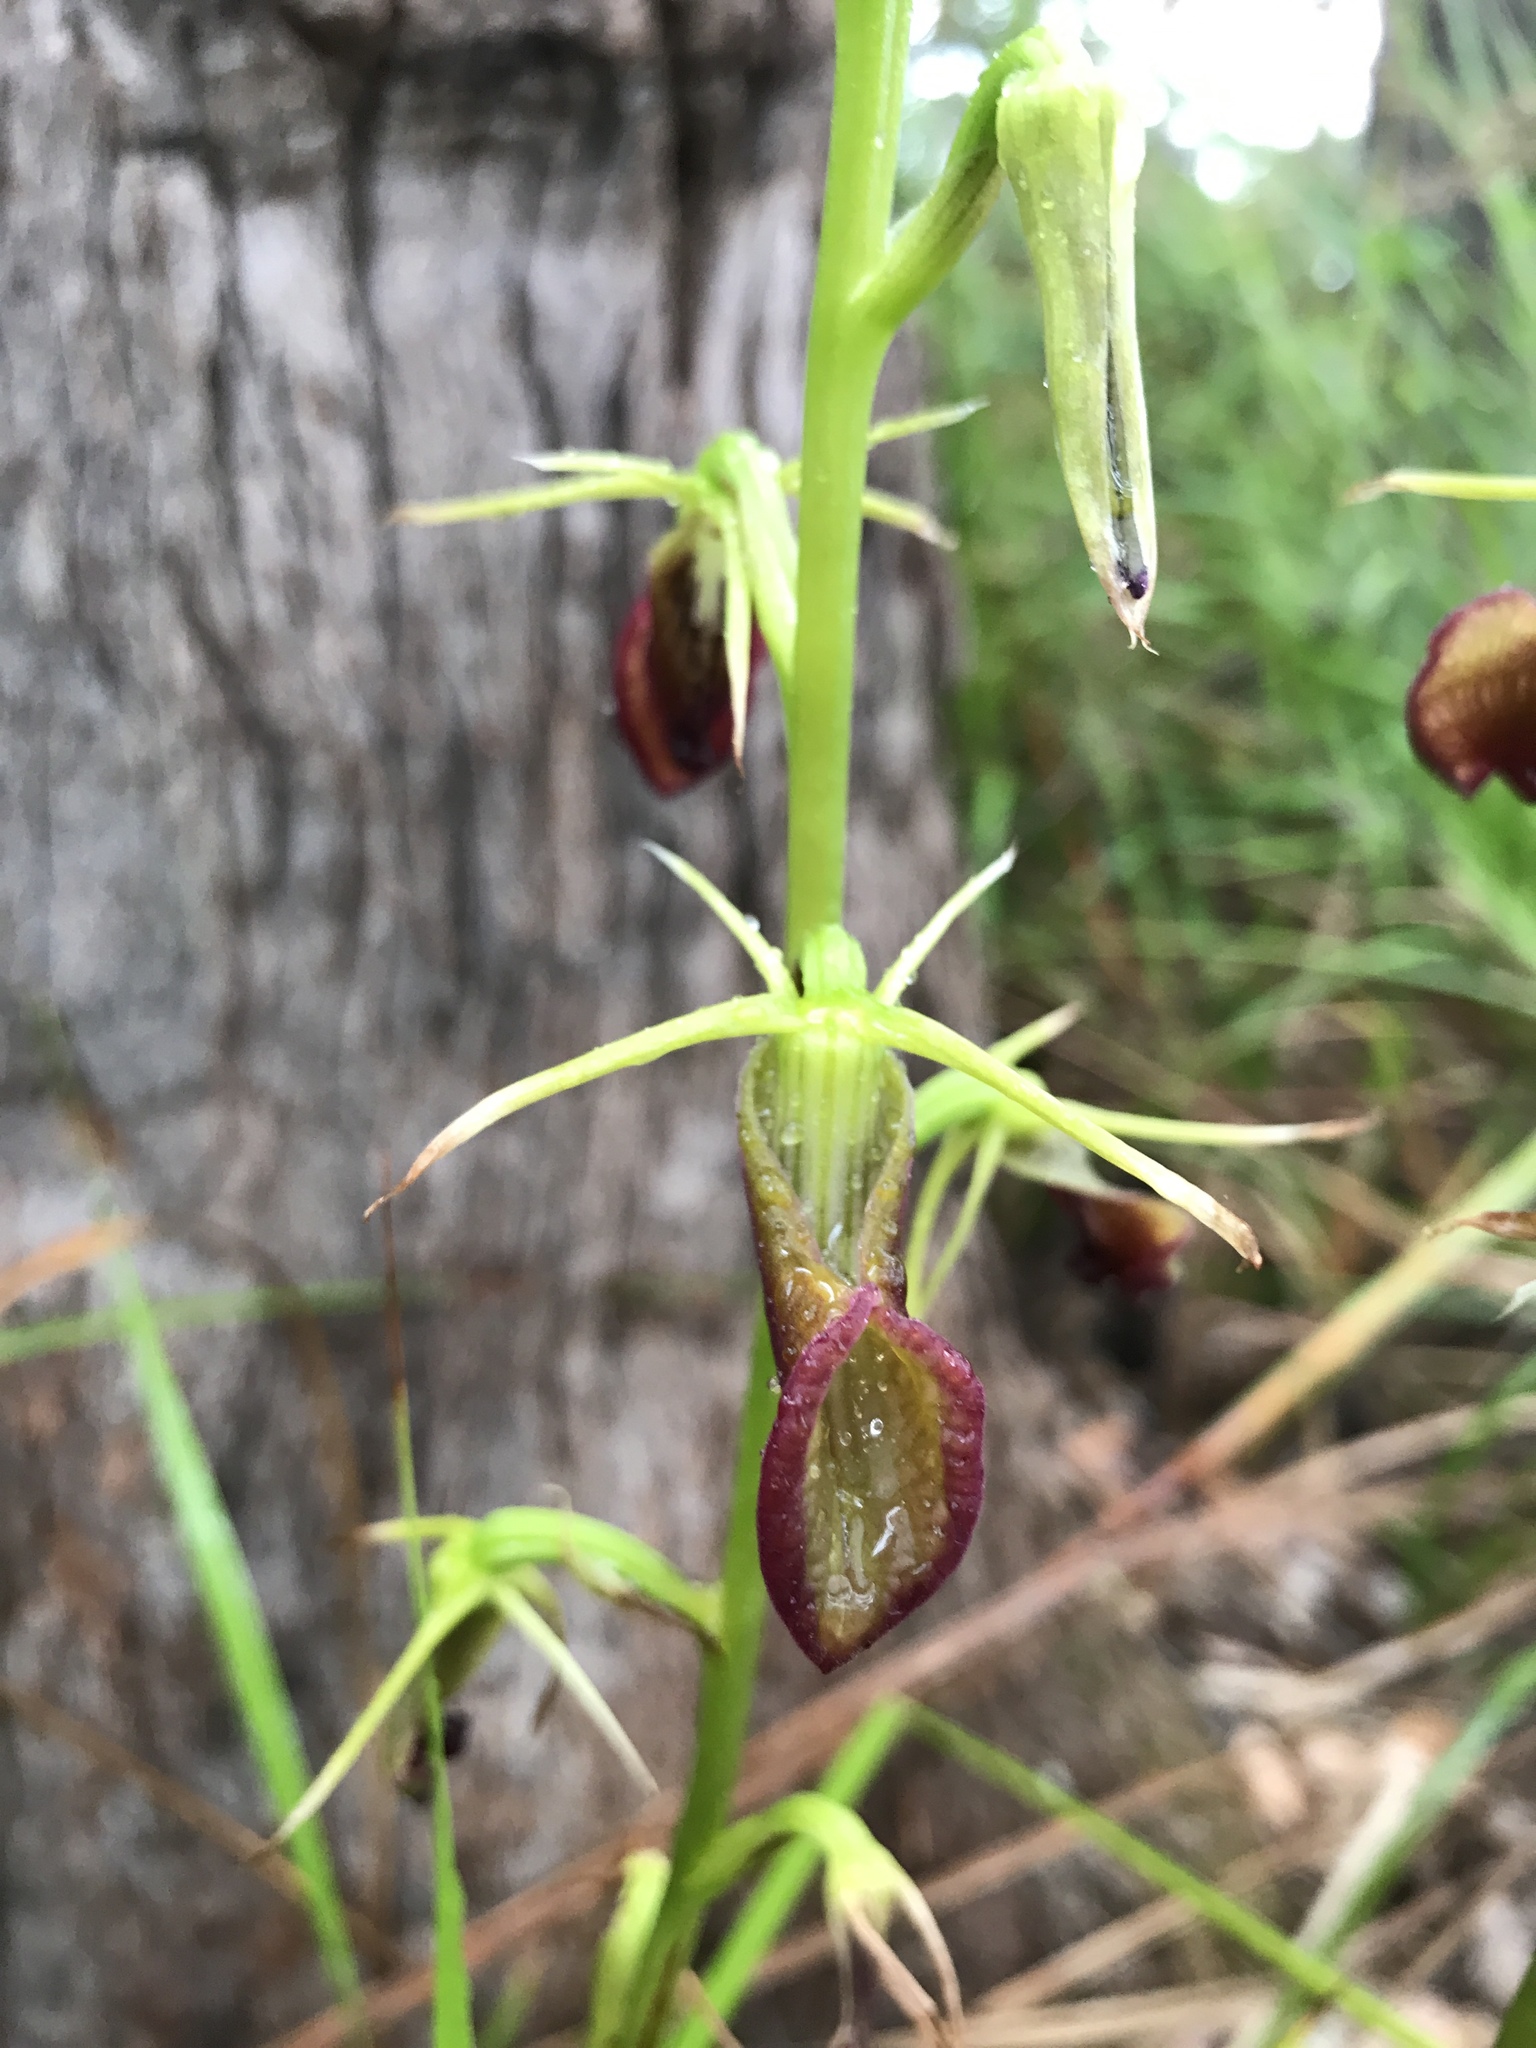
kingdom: Plantae
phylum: Tracheophyta
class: Liliopsida
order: Asparagales
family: Orchidaceae
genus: Cryptostylis
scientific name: Cryptostylis ovata
